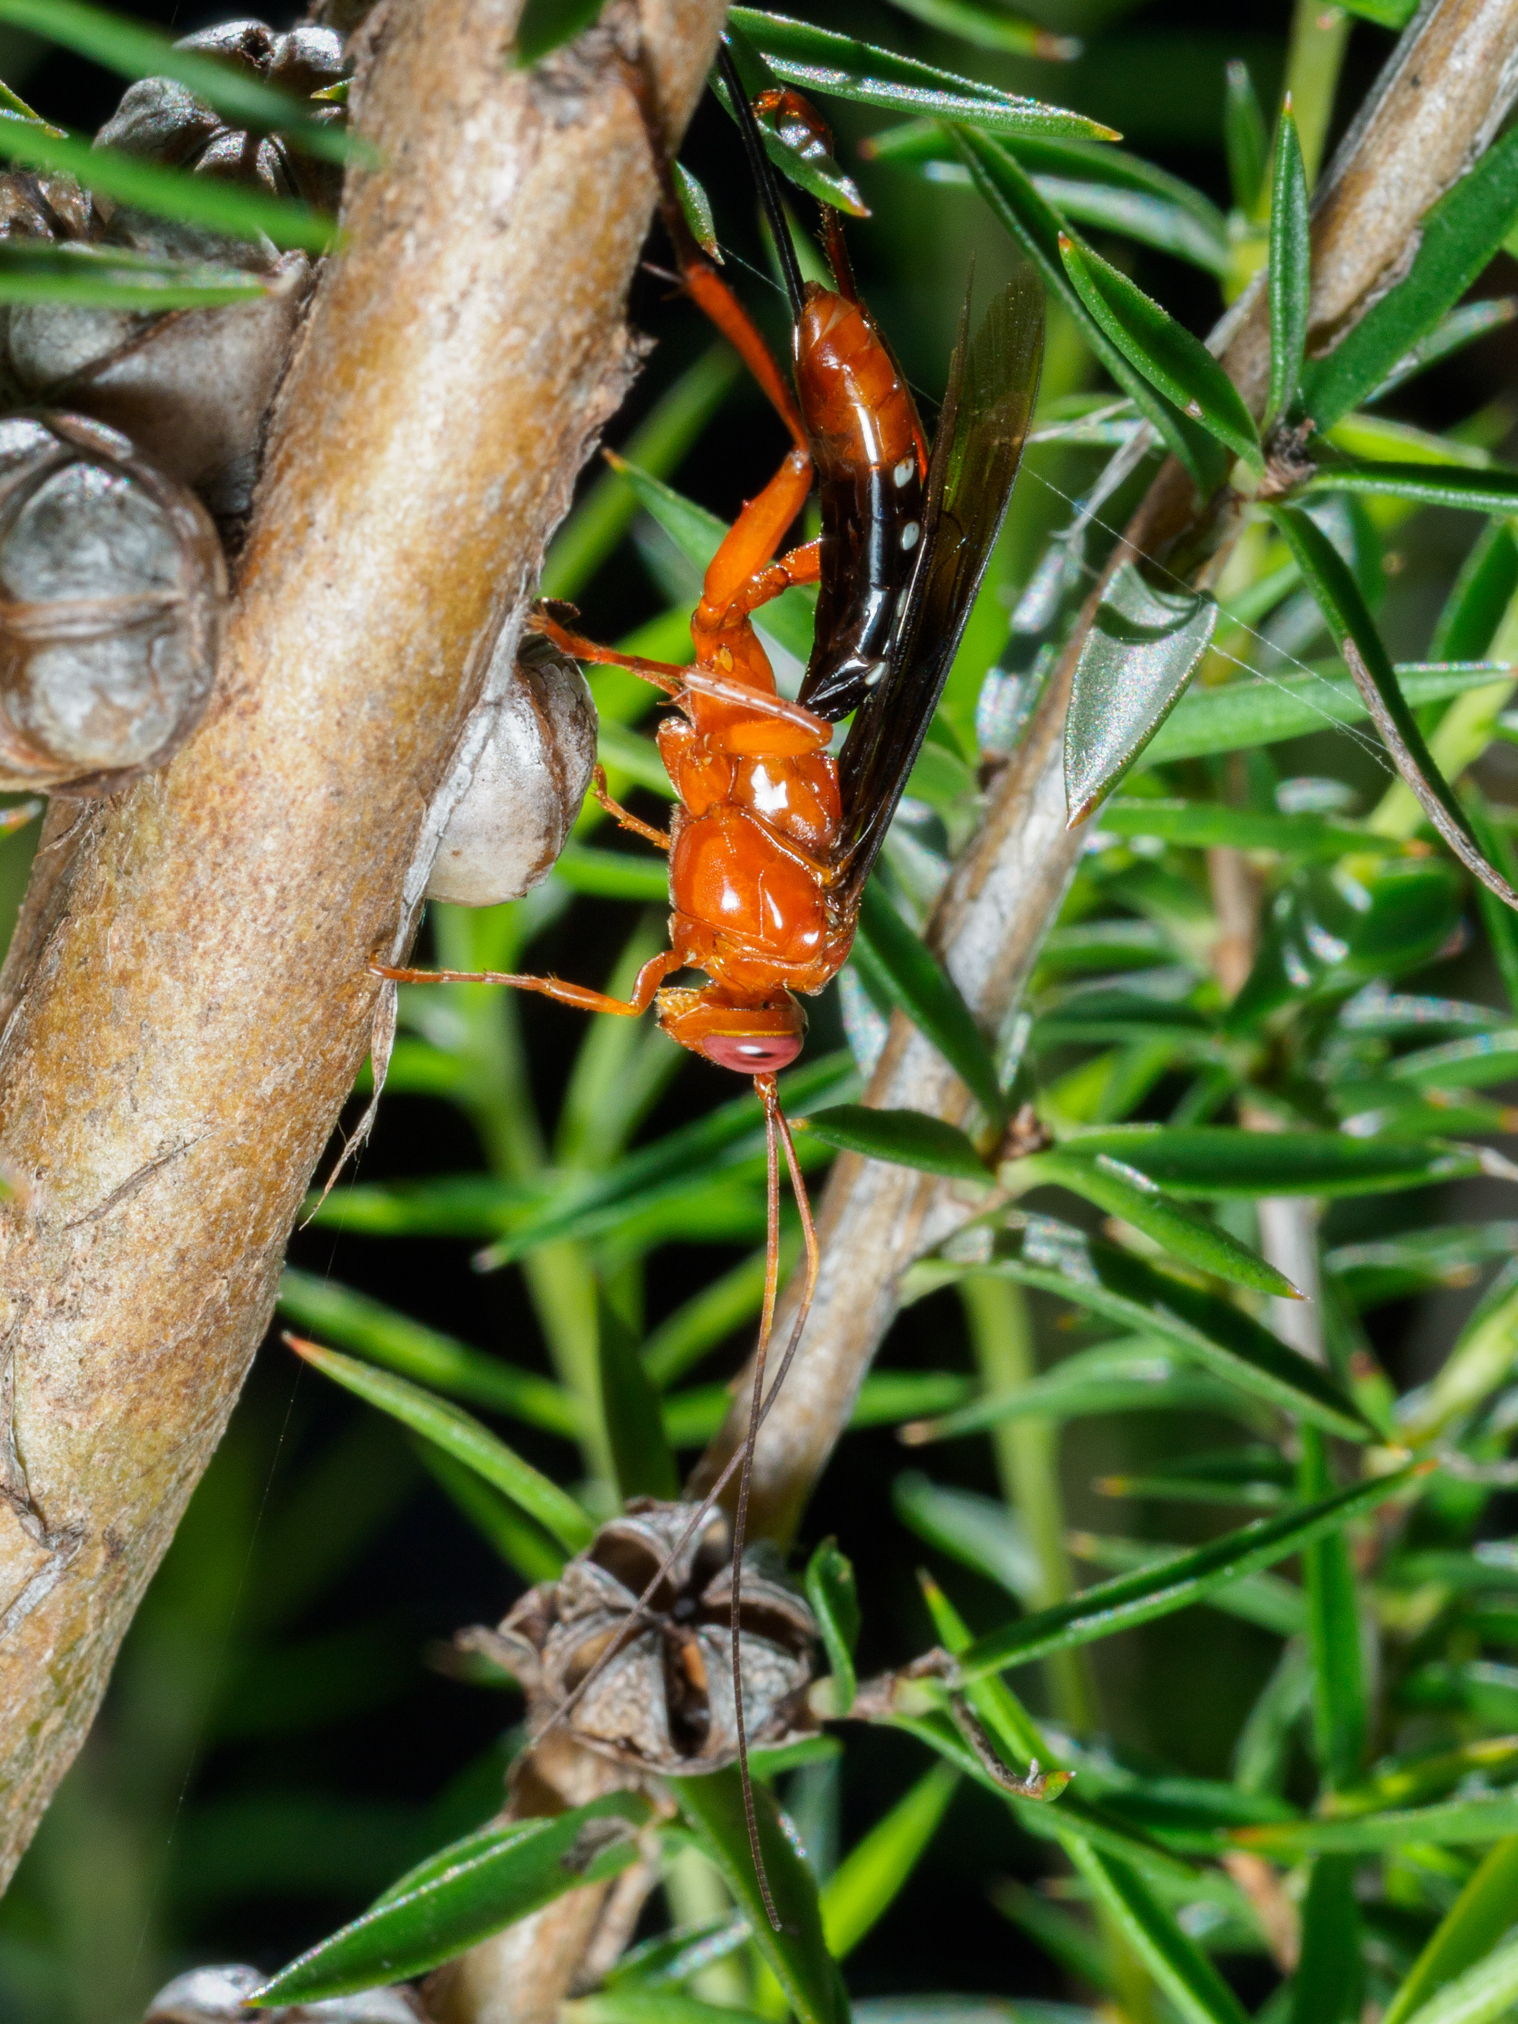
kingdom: Animalia
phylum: Arthropoda
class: Insecta
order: Hymenoptera
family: Ichneumonidae
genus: Lissopimpla
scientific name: Lissopimpla excelsa
